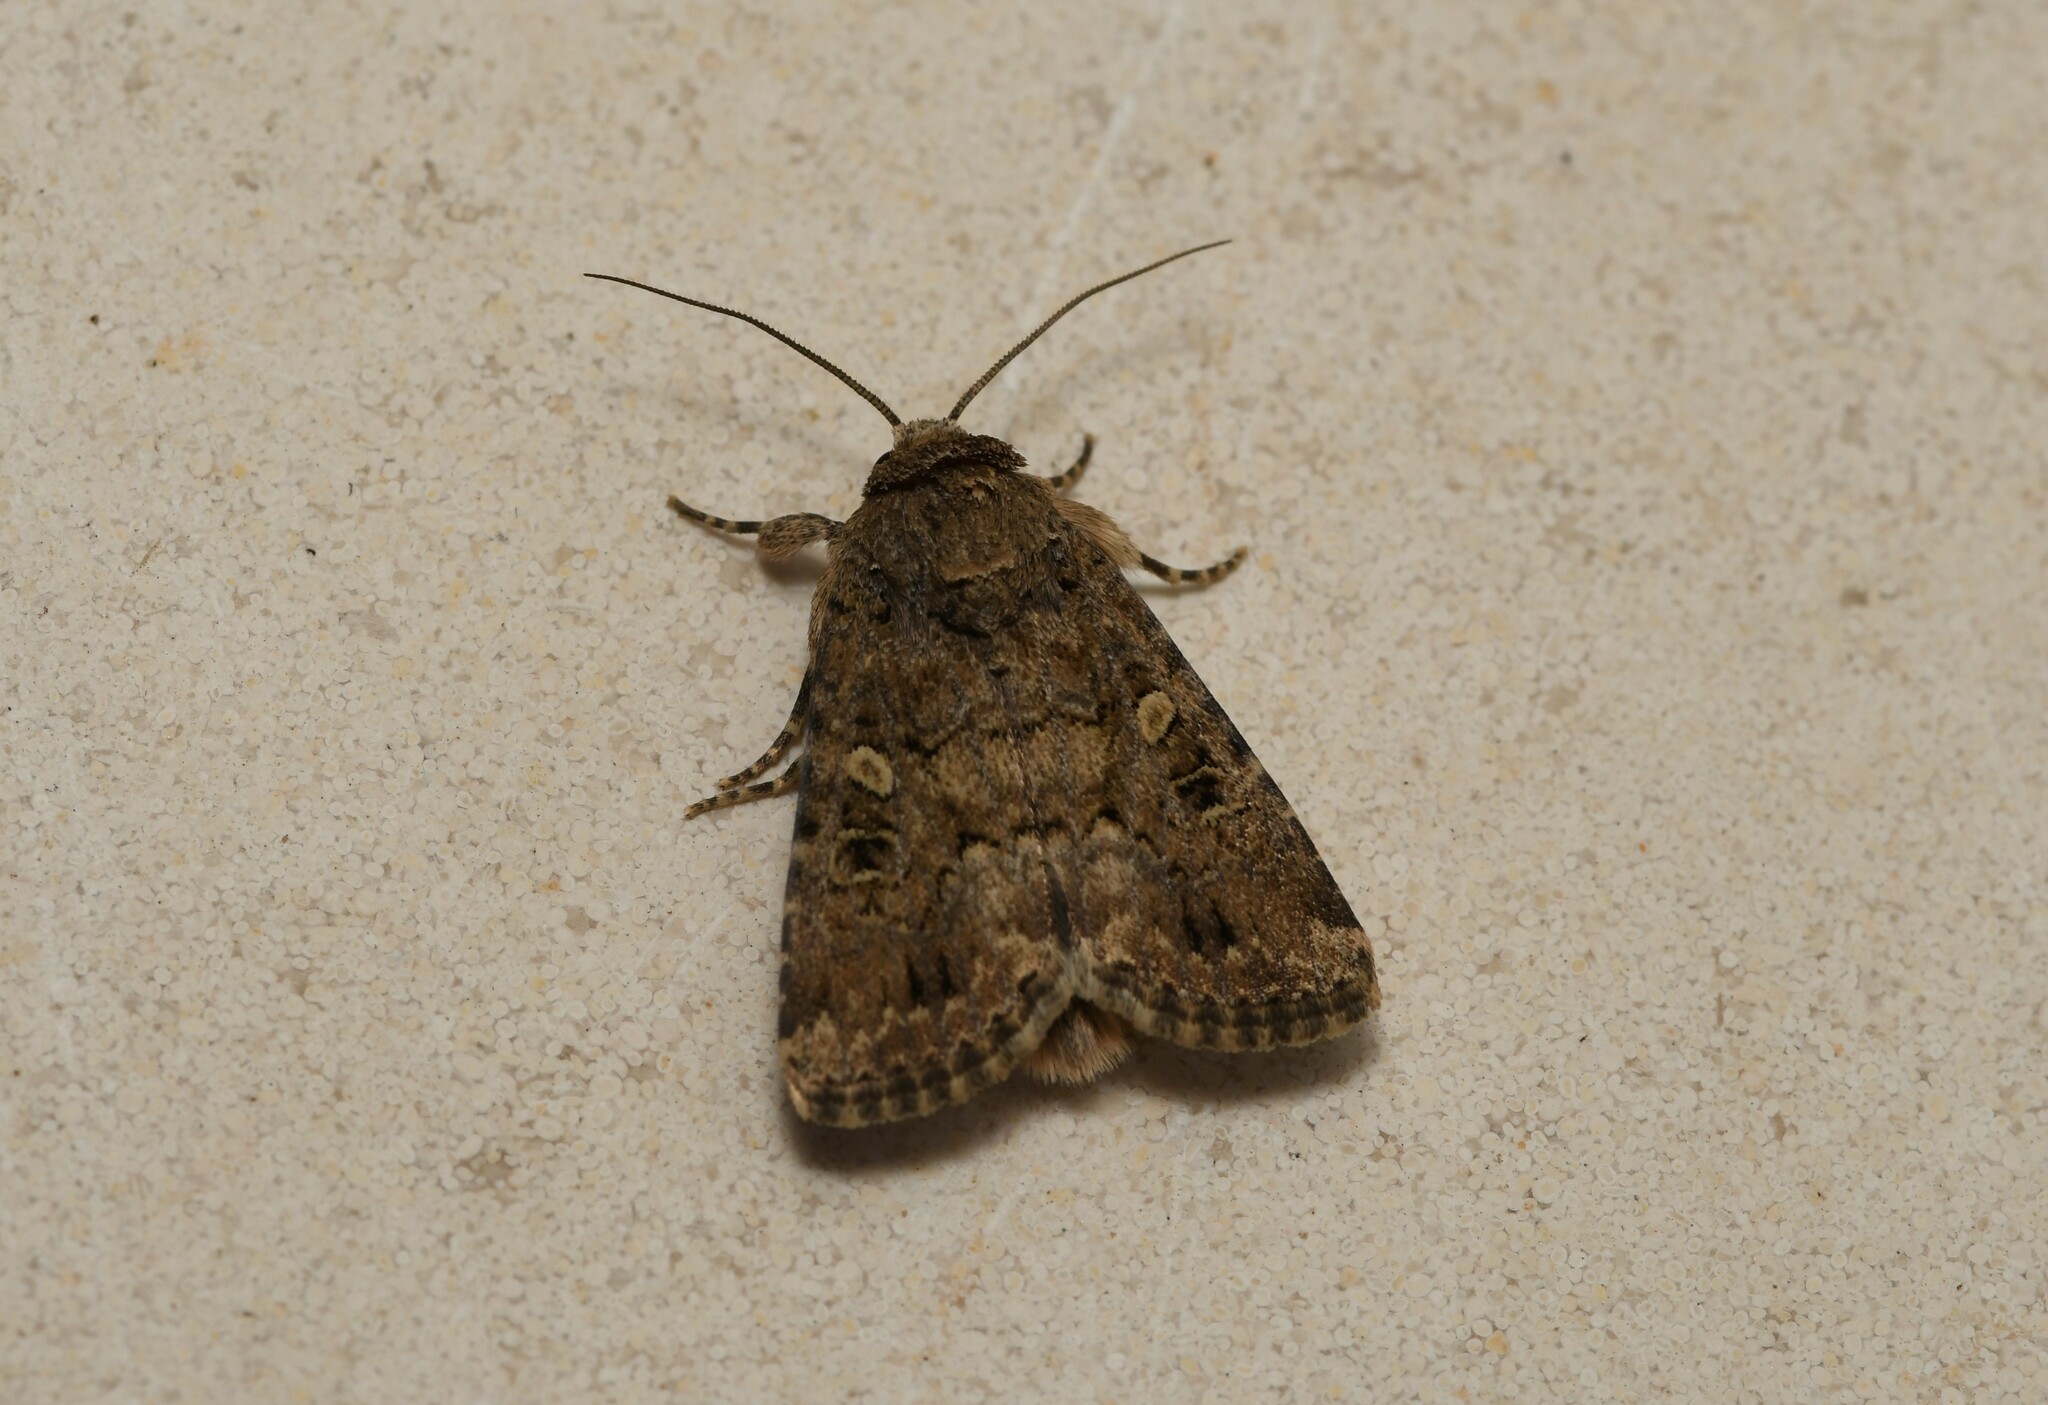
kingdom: Animalia
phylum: Arthropoda
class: Insecta
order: Lepidoptera
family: Noctuidae
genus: Spodoptera
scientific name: Spodoptera cilium
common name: Dark mottled willow
